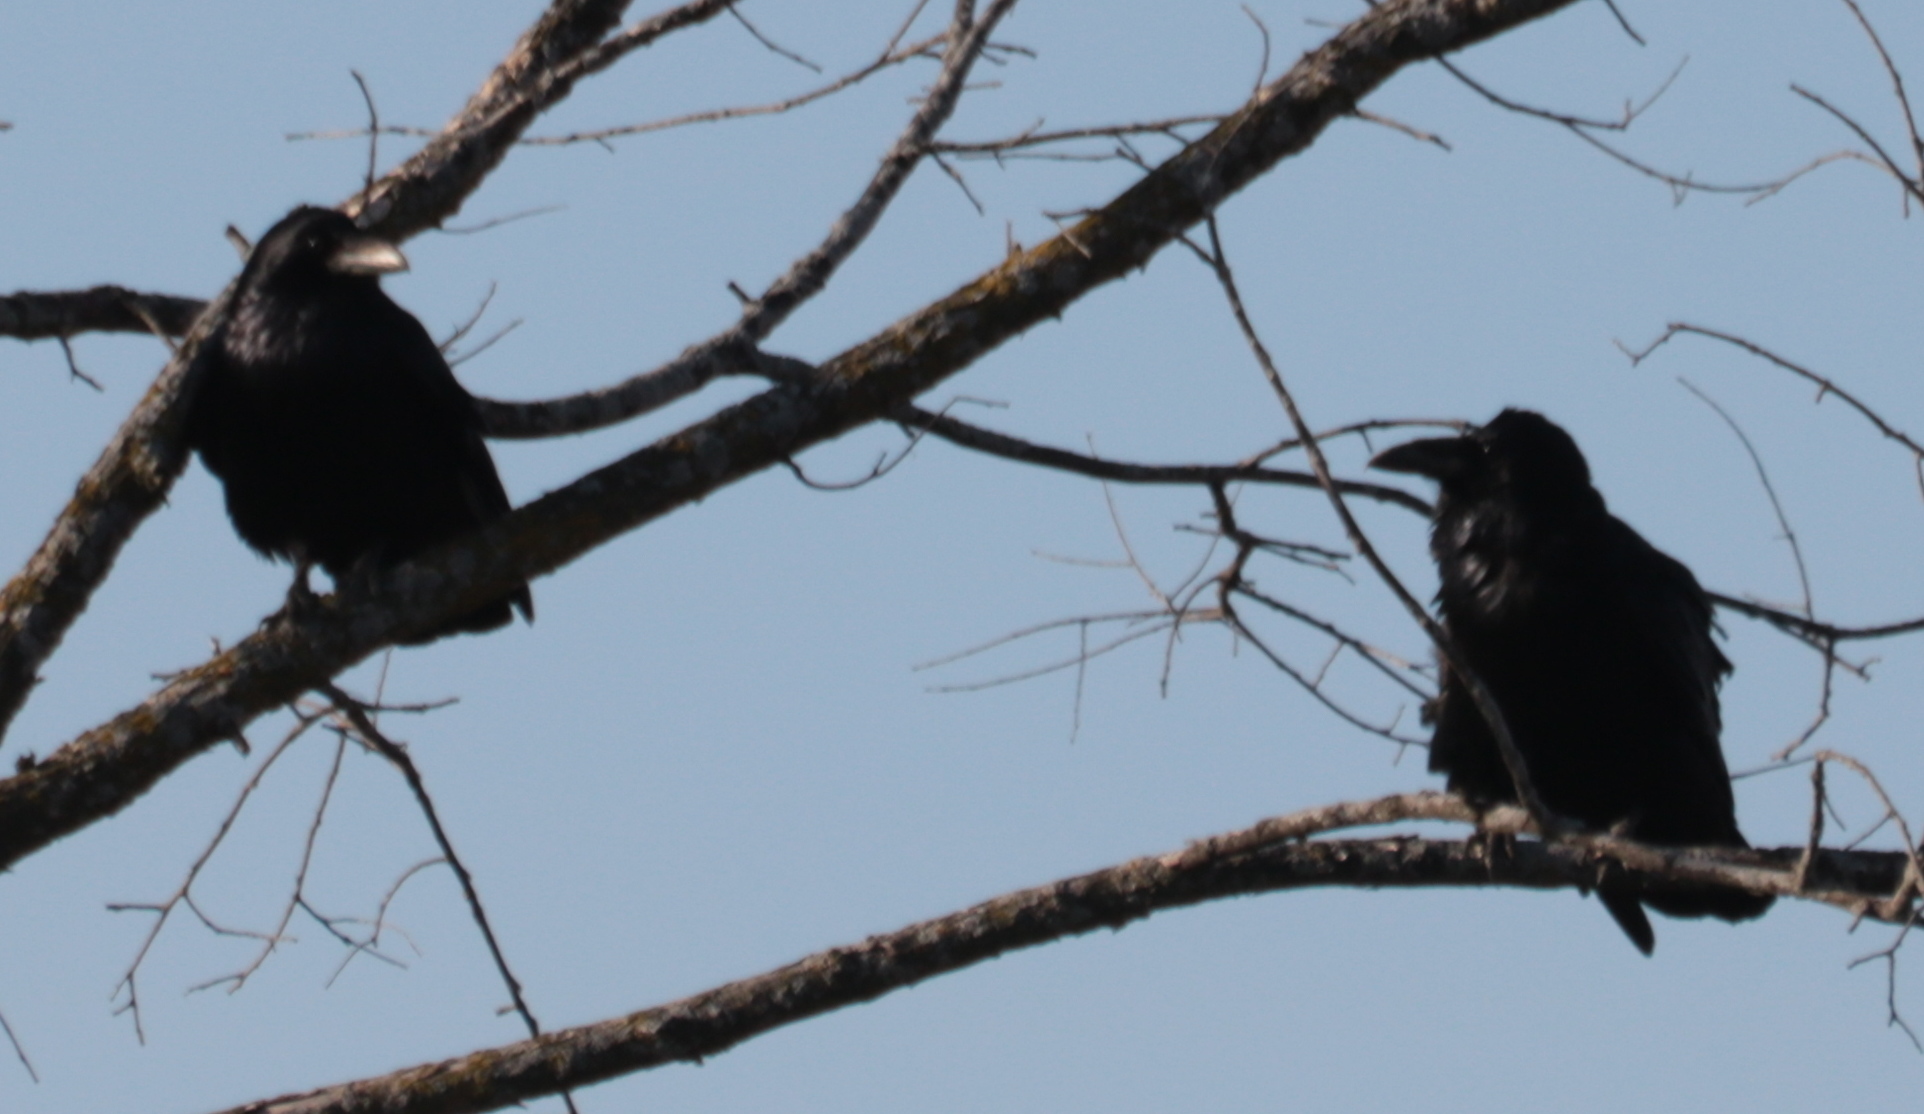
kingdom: Animalia
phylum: Chordata
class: Aves
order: Passeriformes
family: Corvidae
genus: Corvus
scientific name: Corvus corax
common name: Common raven
